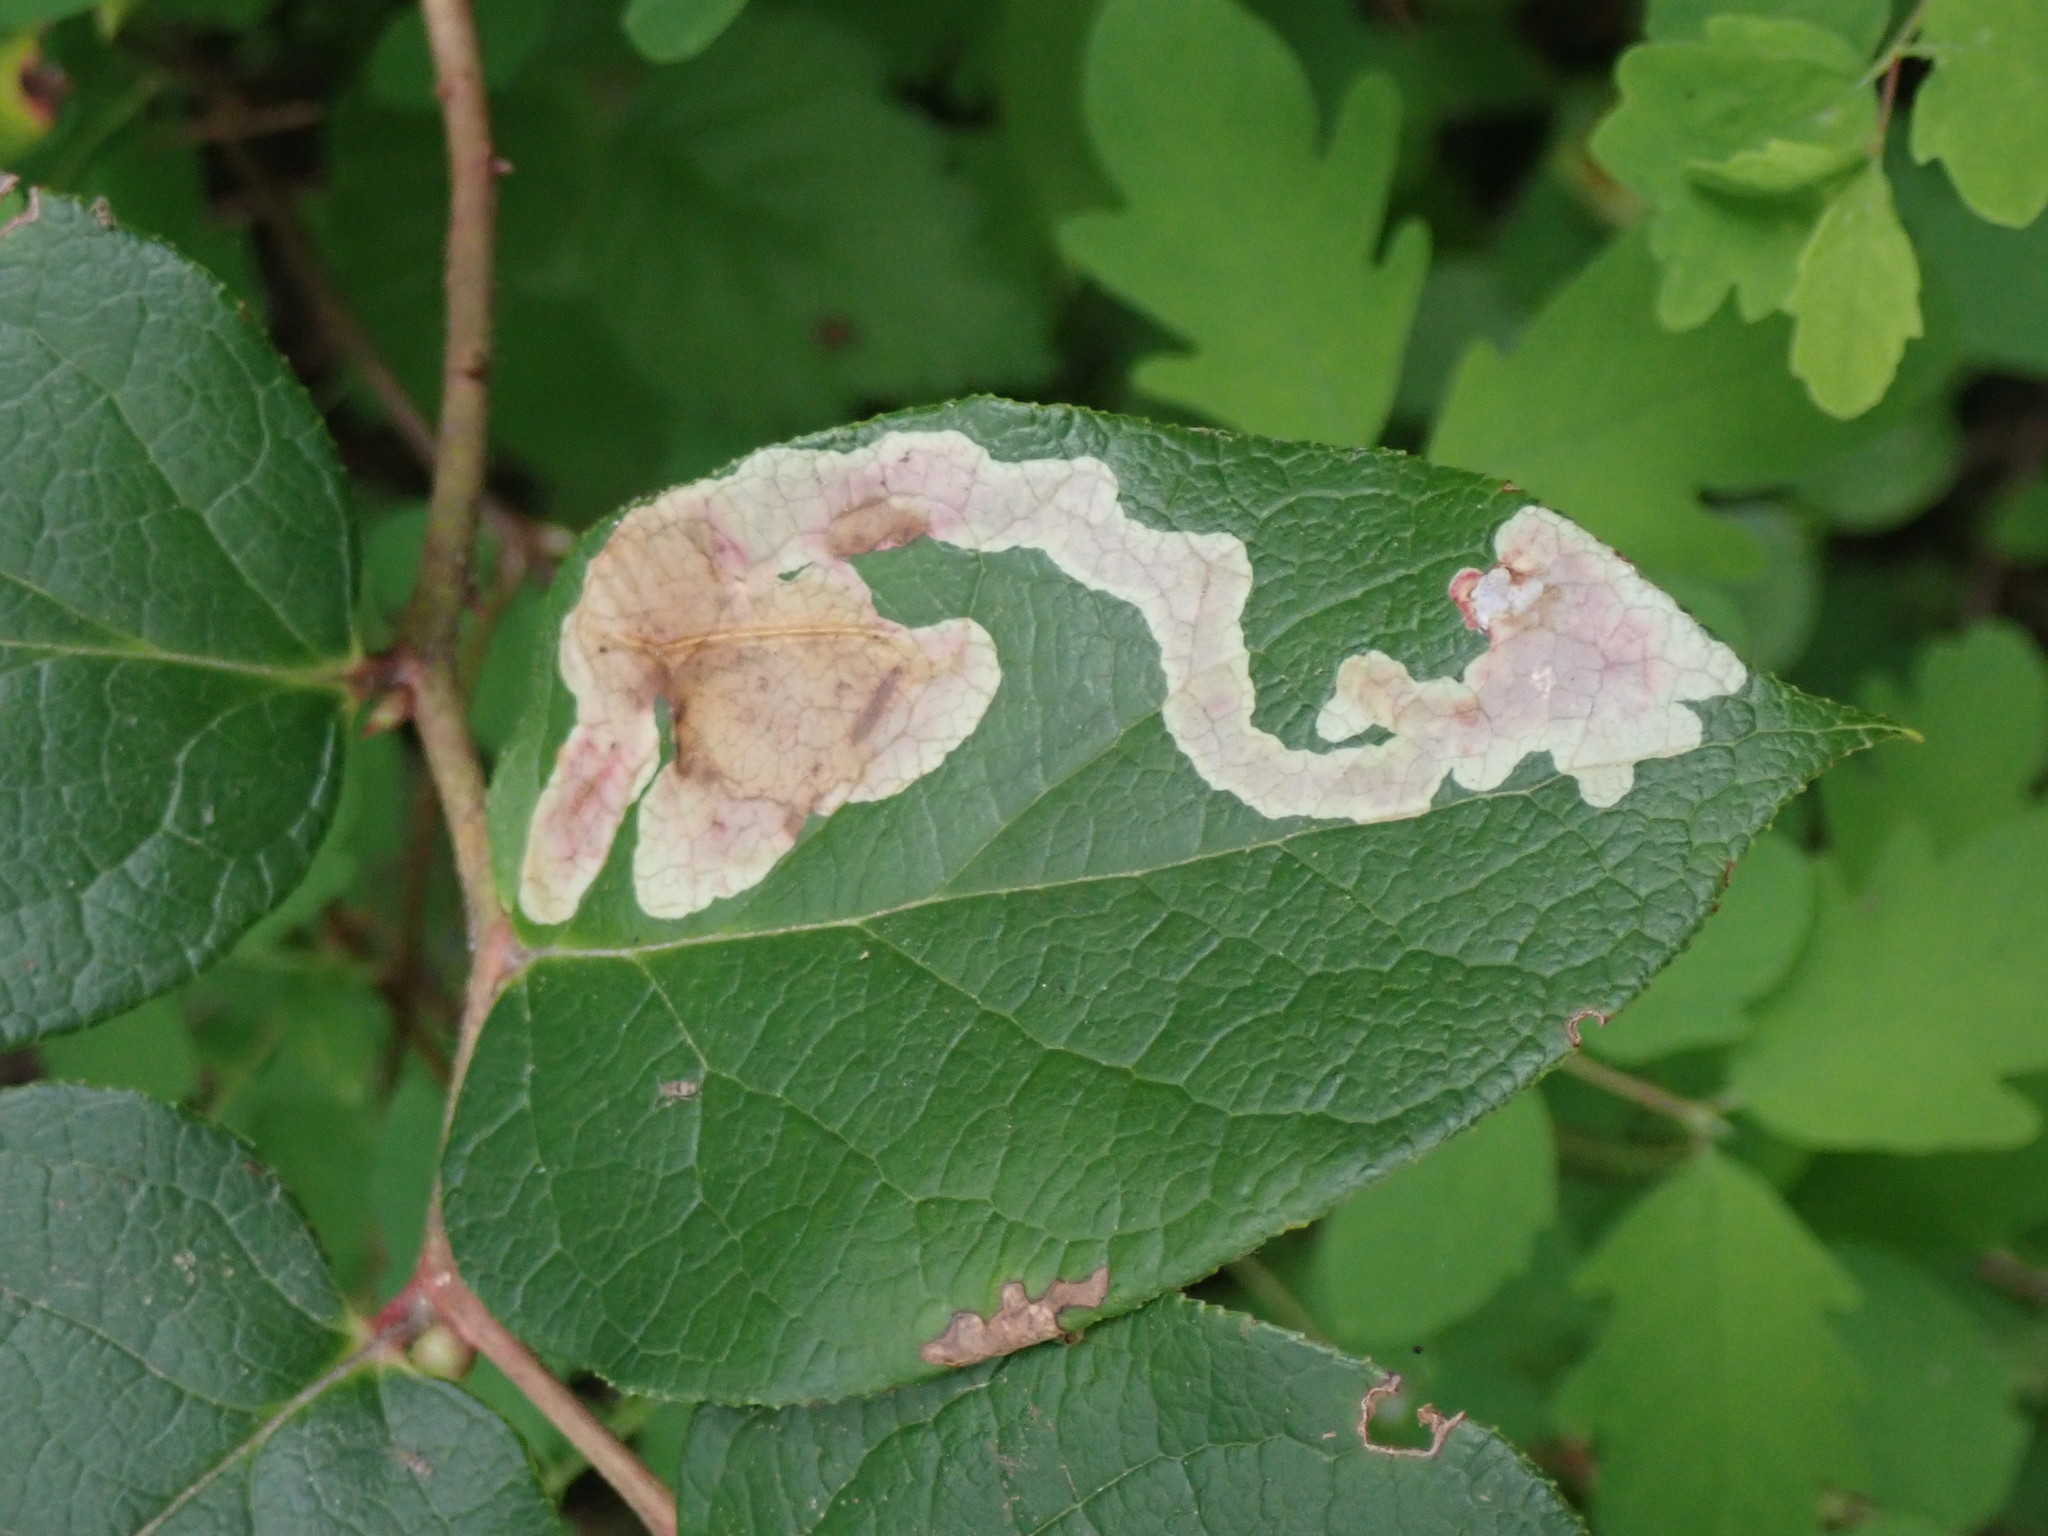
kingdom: Animalia
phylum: Arthropoda
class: Insecta
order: Lepidoptera
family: Gracillariidae
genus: Cameraria
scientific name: Cameraria gaultheriella
